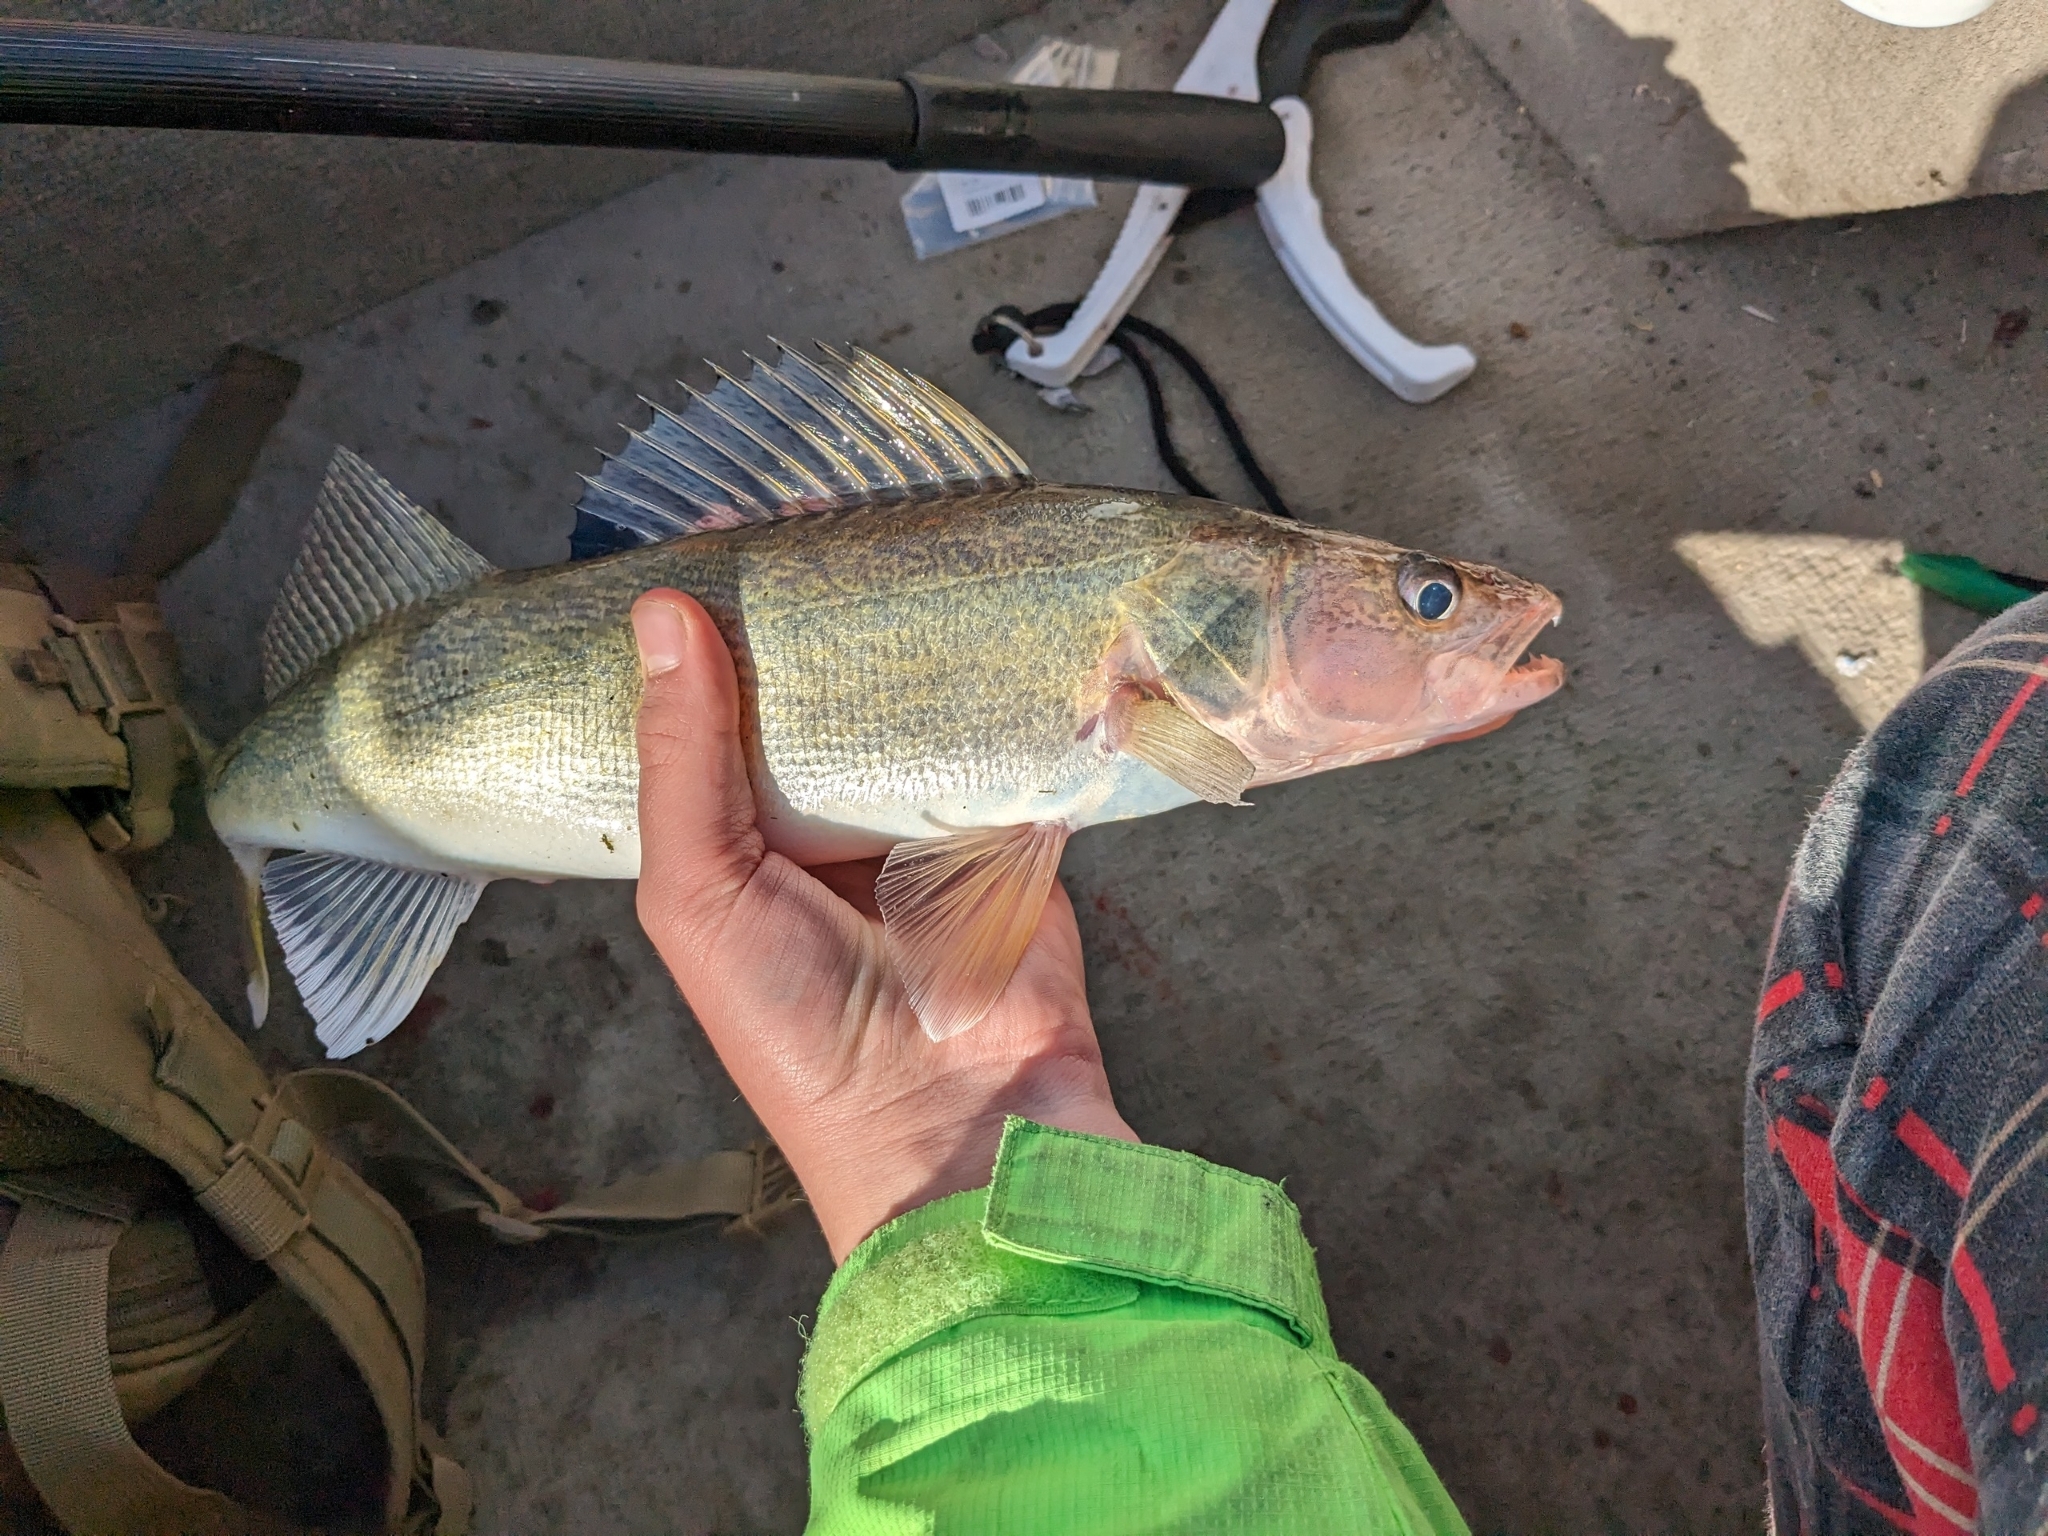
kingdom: Animalia
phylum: Chordata
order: Perciformes
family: Percidae
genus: Sander
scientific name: Sander vitreus
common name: Walleye
